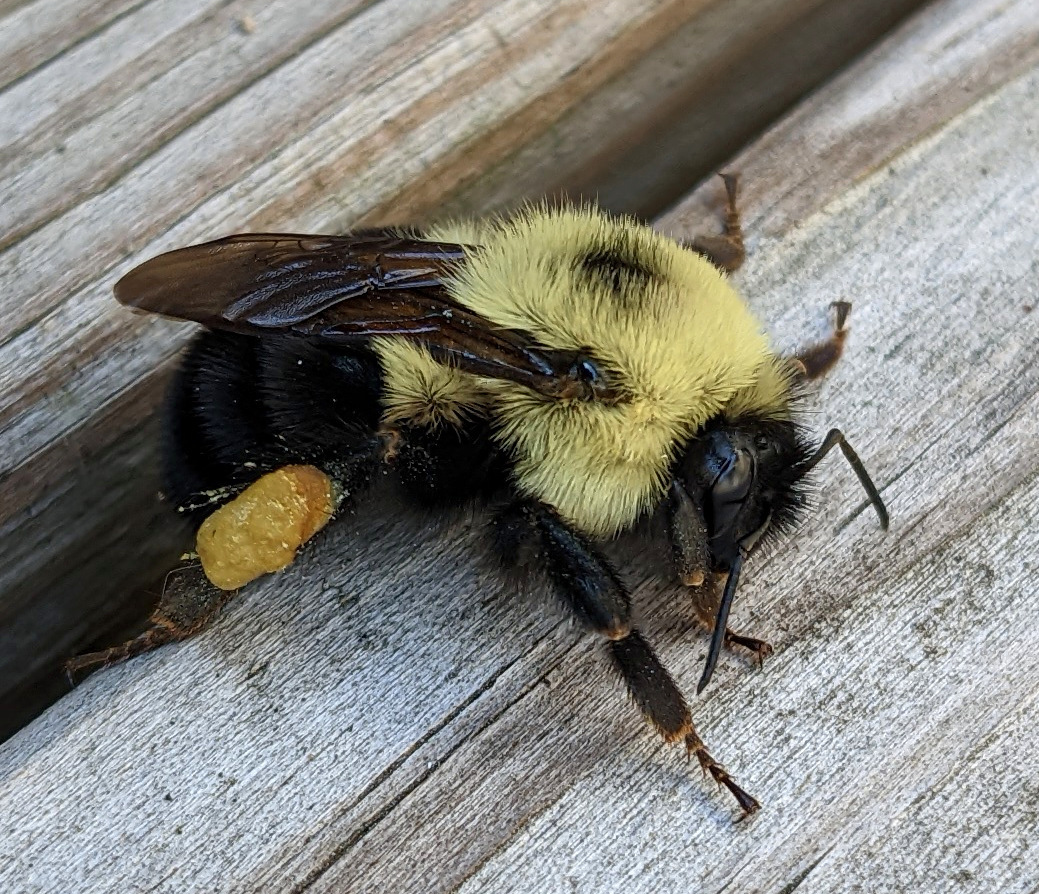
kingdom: Animalia
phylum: Arthropoda
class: Insecta
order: Hymenoptera
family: Apidae
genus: Bombus
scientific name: Bombus bimaculatus
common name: Two-spotted bumble bee
